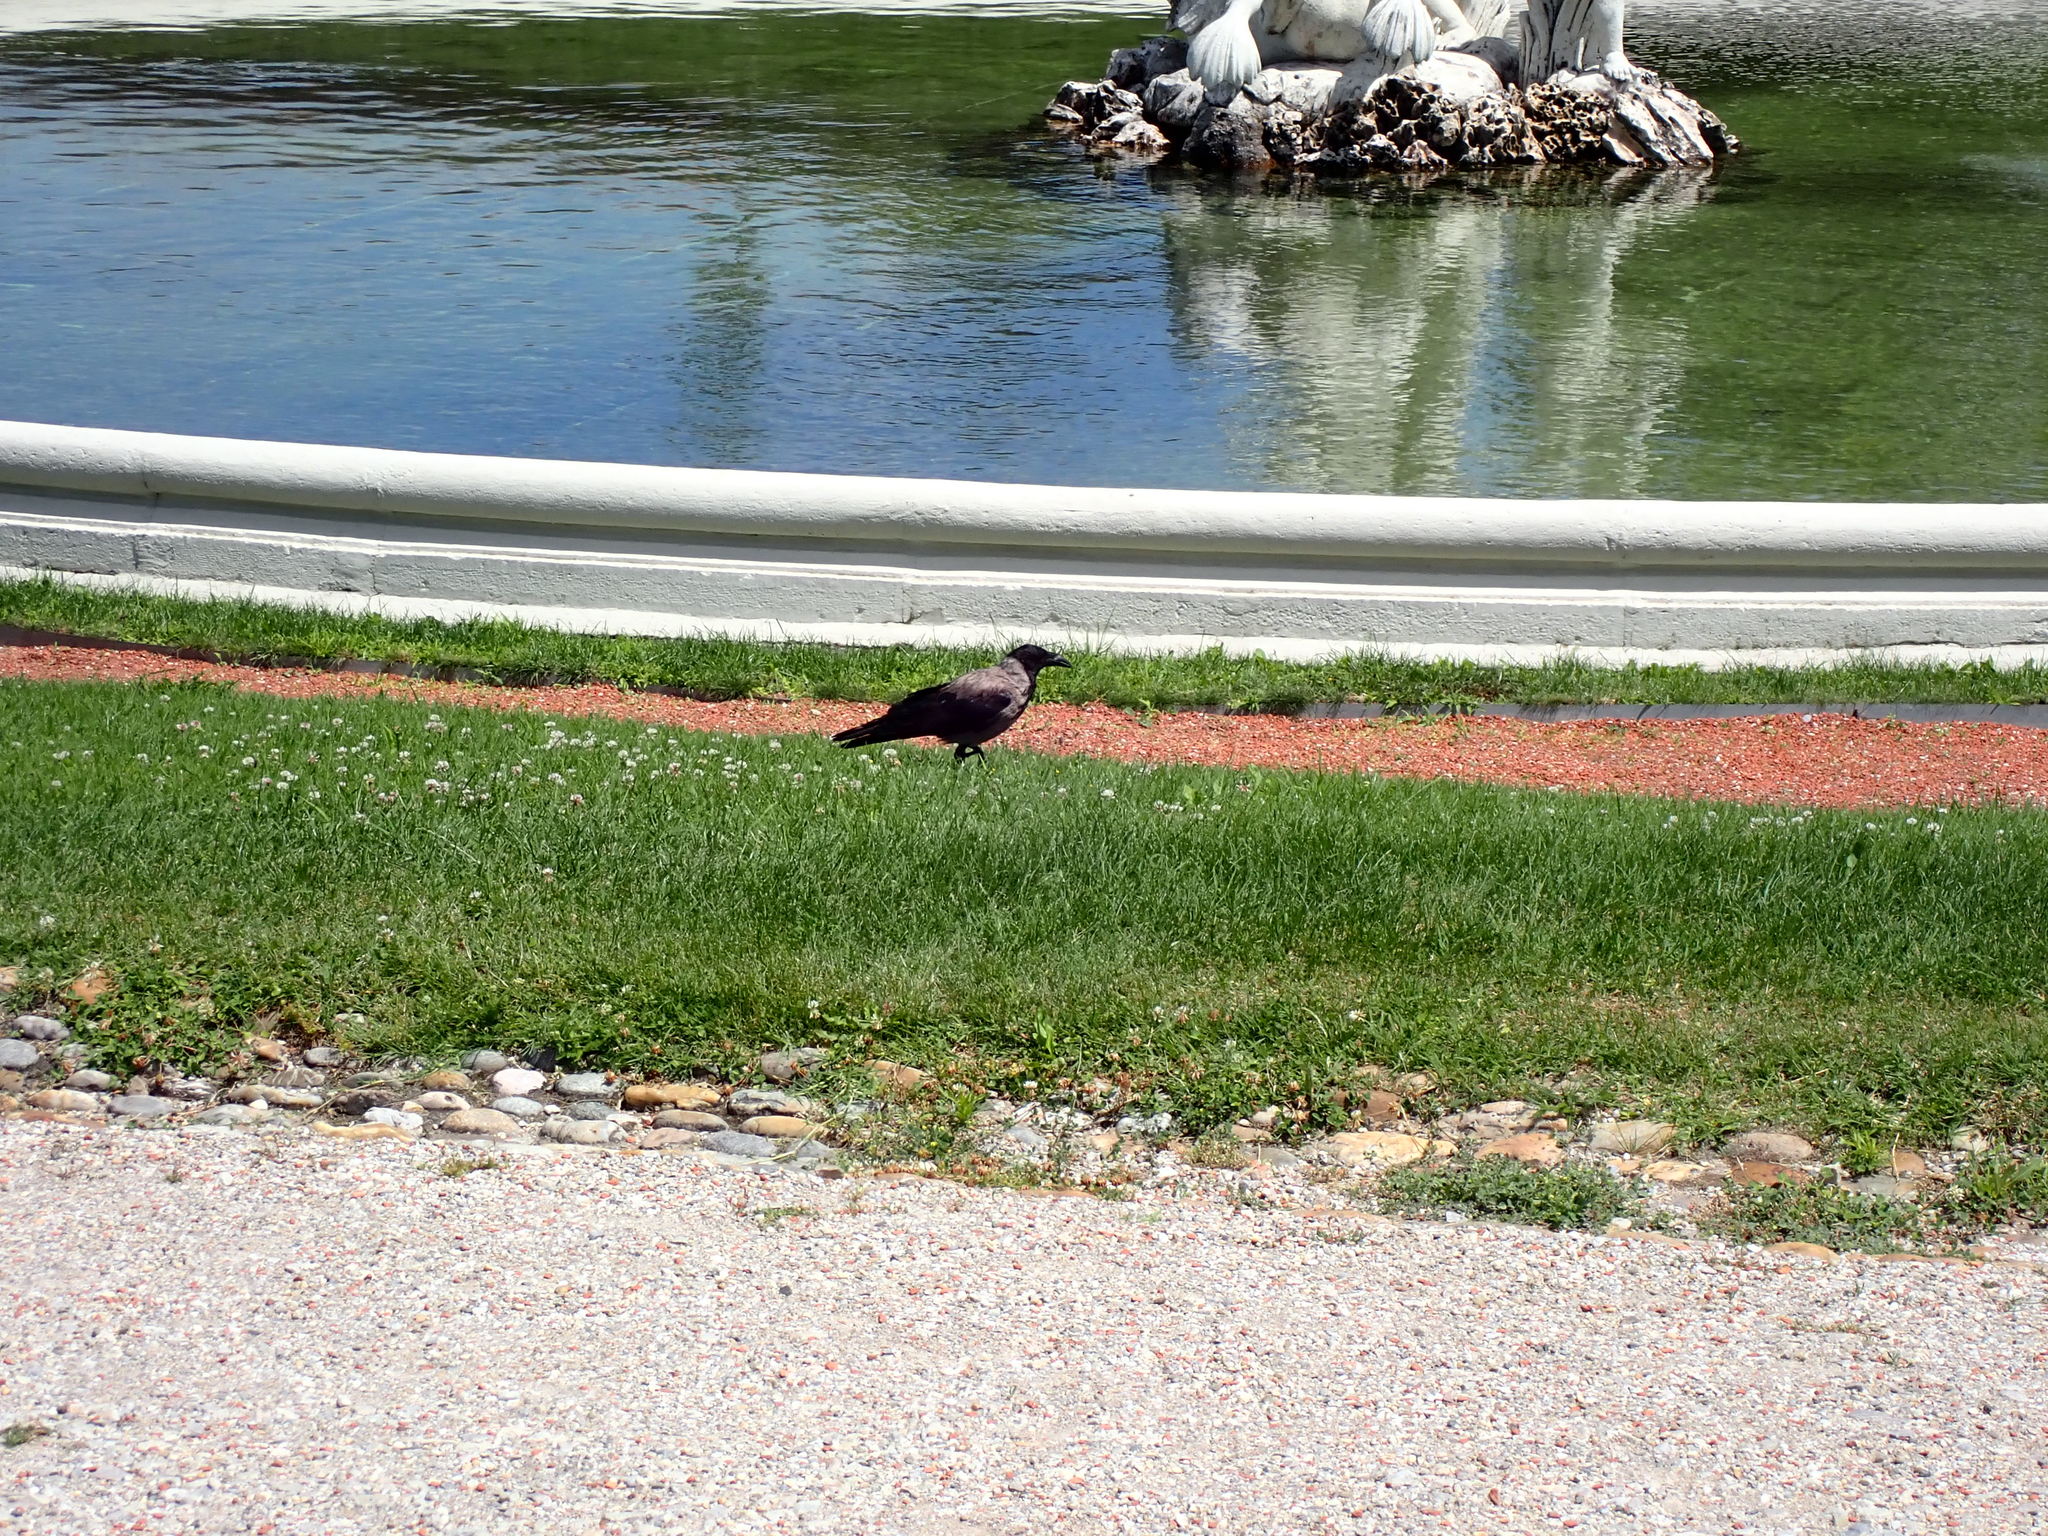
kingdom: Animalia
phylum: Chordata
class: Aves
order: Passeriformes
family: Corvidae
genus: Corvus
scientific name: Corvus cornix
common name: Hooded crow
